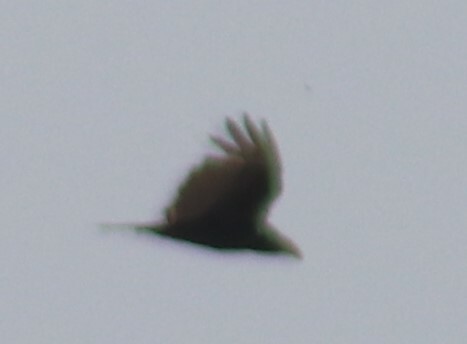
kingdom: Animalia
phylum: Chordata
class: Aves
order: Accipitriformes
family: Cathartidae
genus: Cathartes
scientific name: Cathartes aura
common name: Turkey vulture
